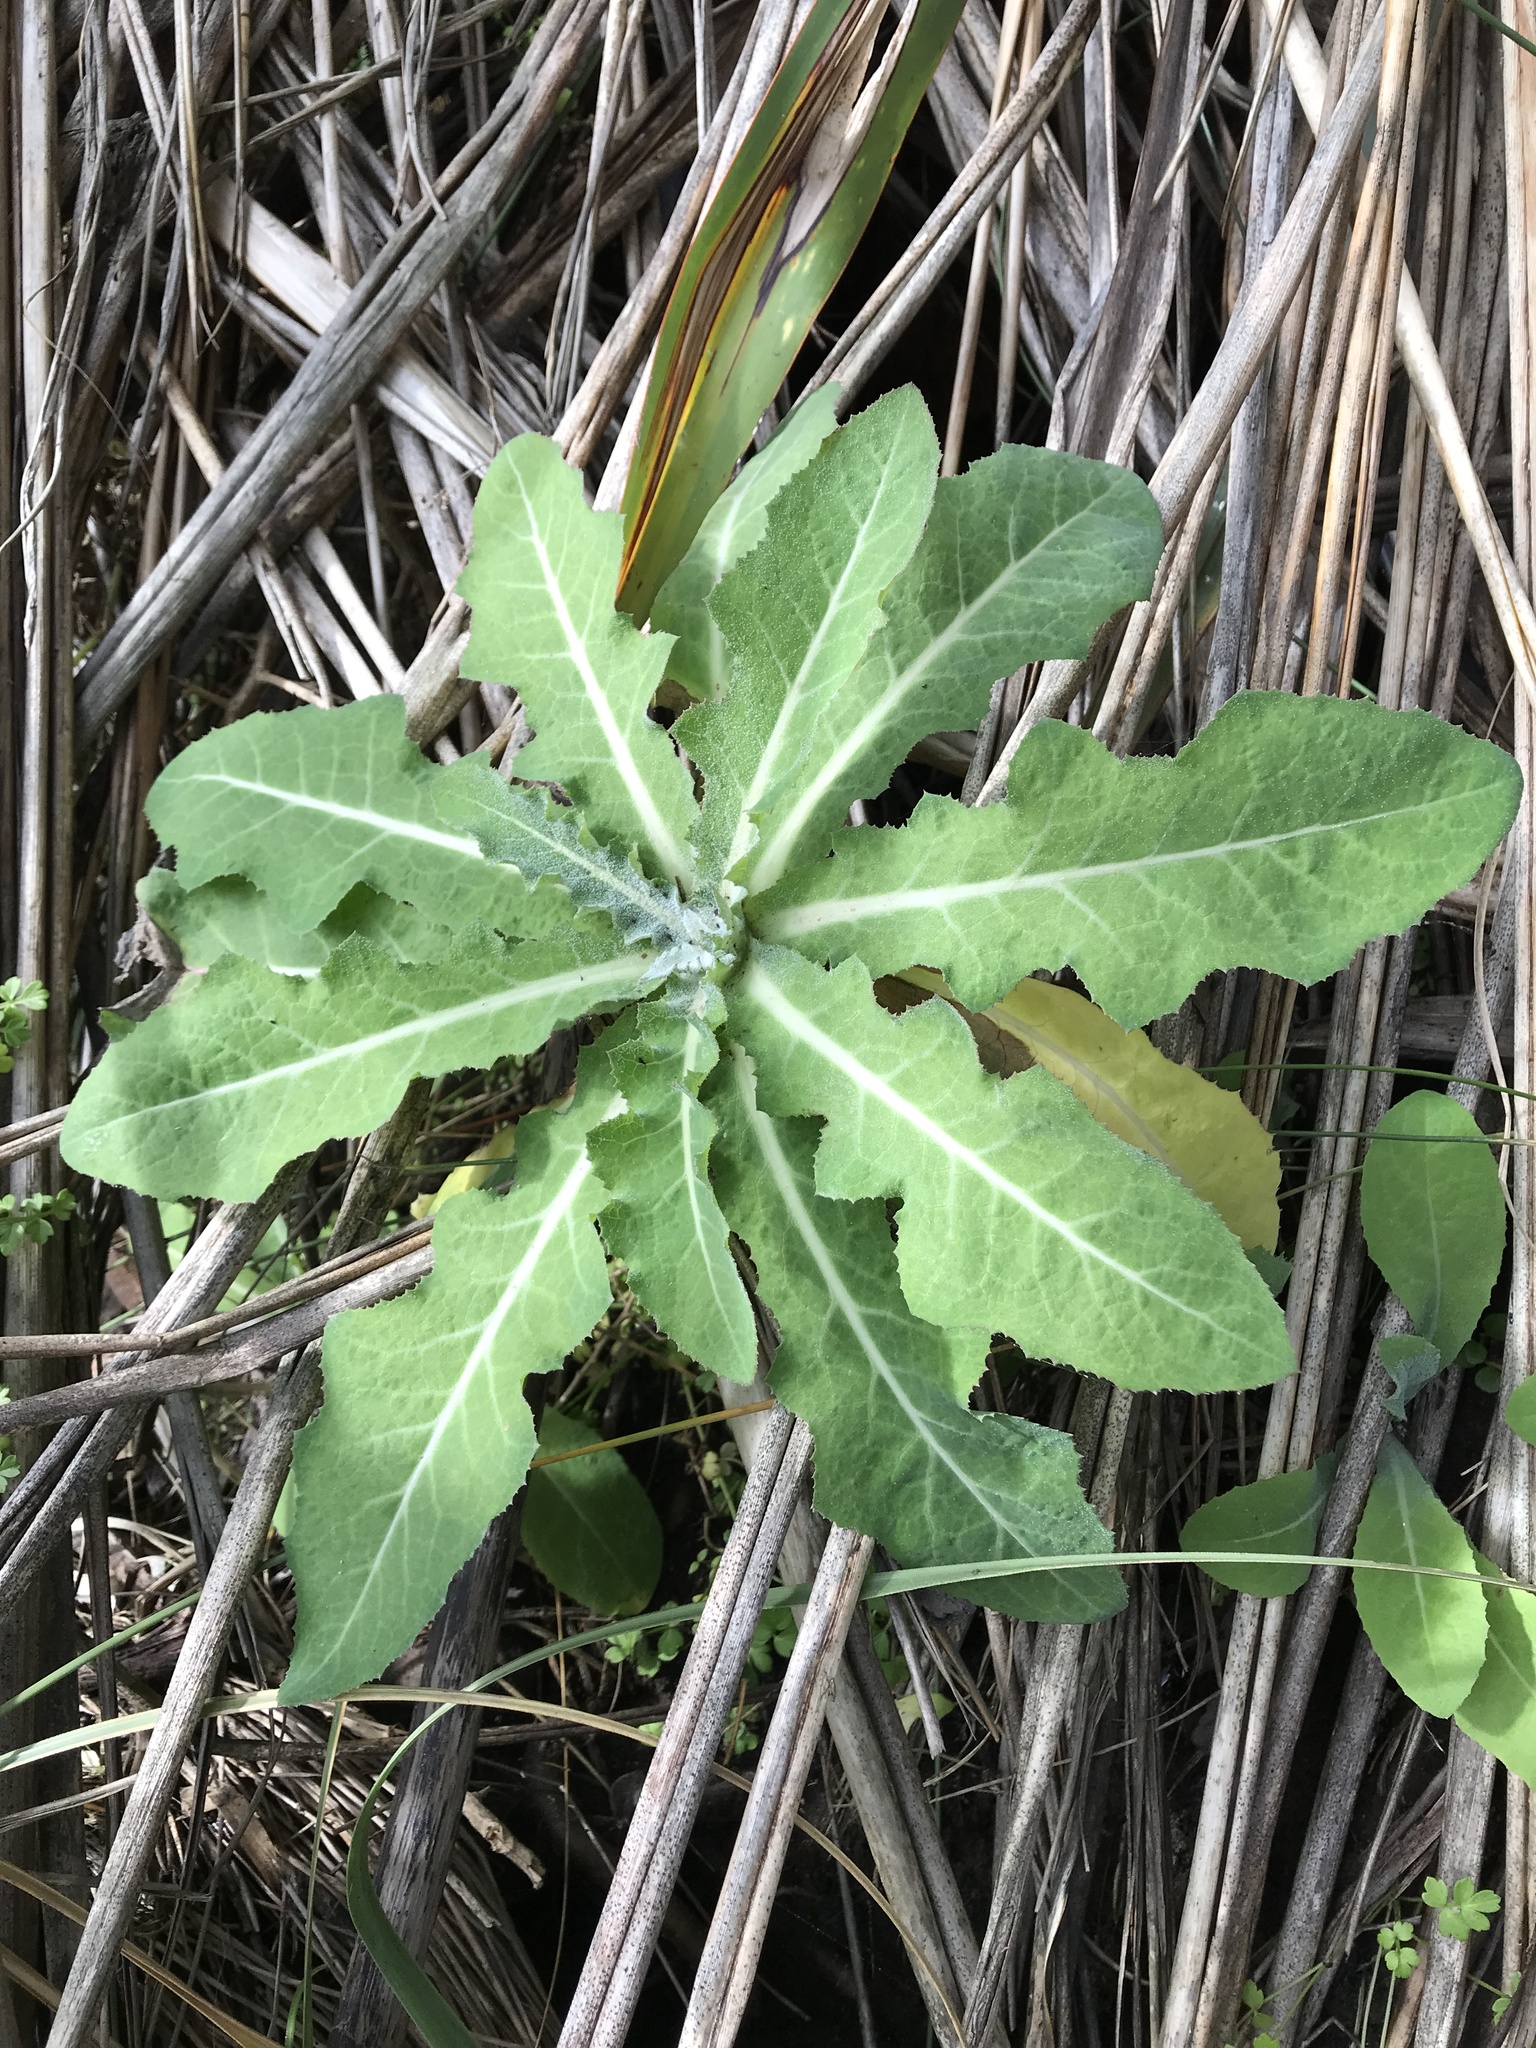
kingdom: Plantae
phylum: Tracheophyta
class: Magnoliopsida
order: Asterales
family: Asteraceae
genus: Sonchus
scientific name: Sonchus kirkii
